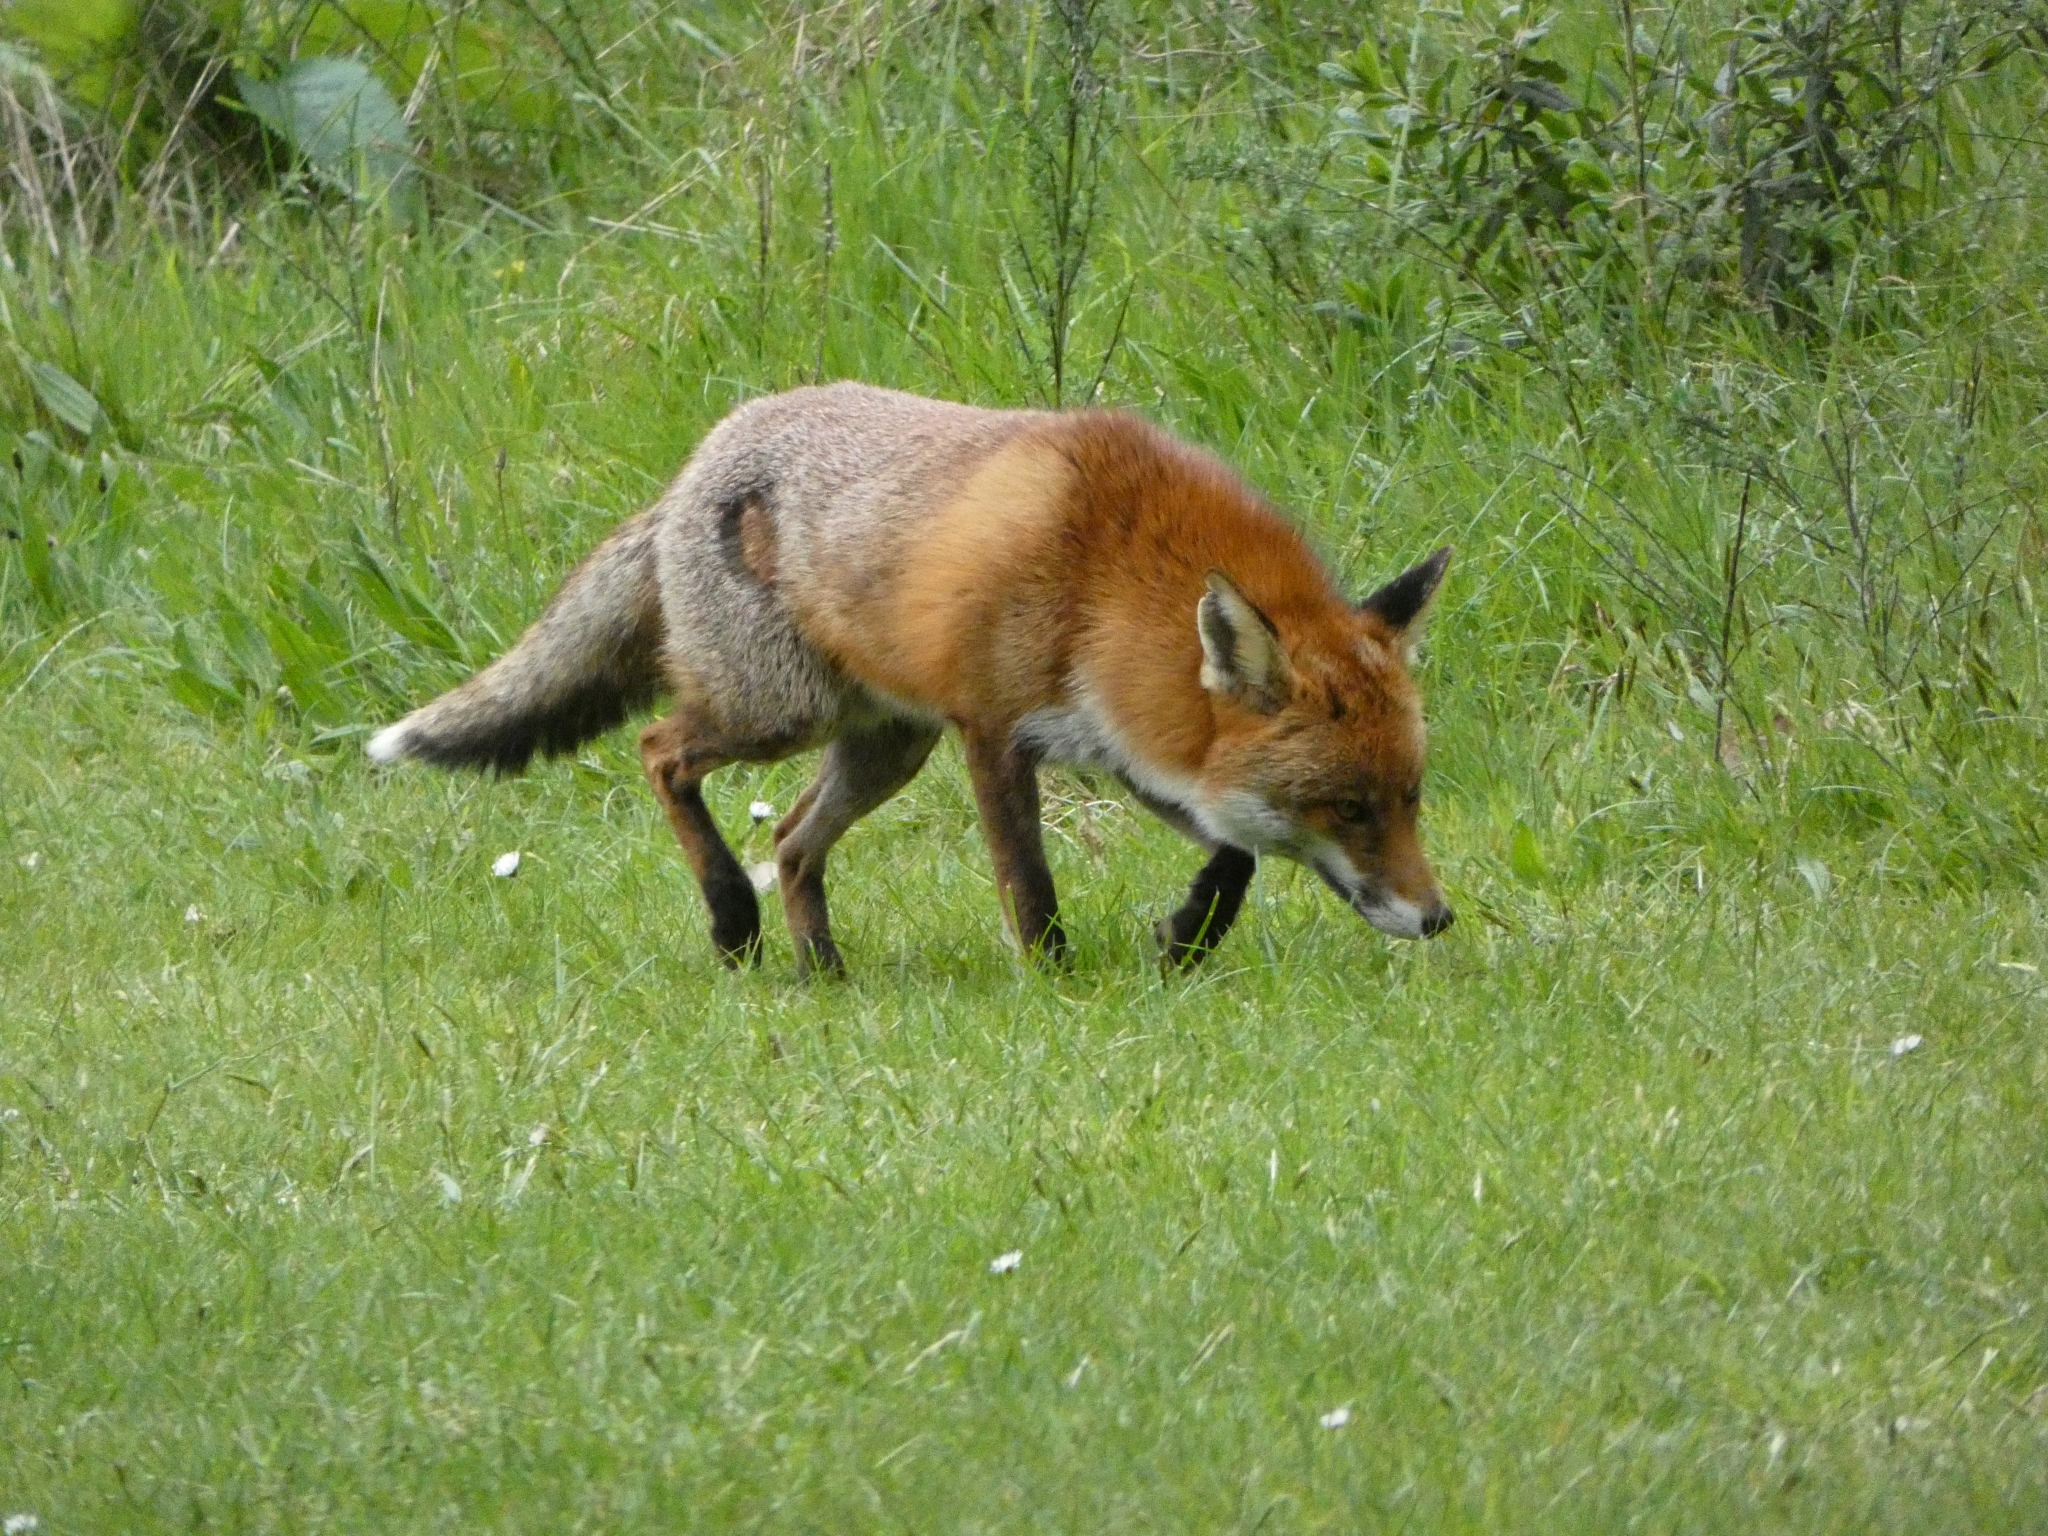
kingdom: Animalia
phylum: Chordata
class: Mammalia
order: Carnivora
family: Canidae
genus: Vulpes
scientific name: Vulpes vulpes
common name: Red fox
